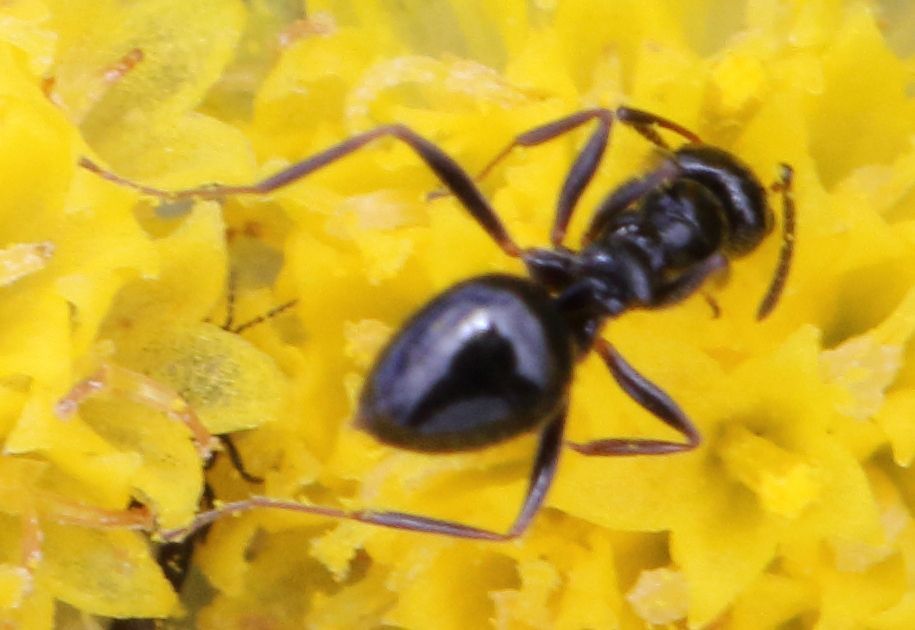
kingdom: Animalia
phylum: Arthropoda
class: Insecta
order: Hymenoptera
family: Formicidae
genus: Lepisiota
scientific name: Lepisiota capensis
